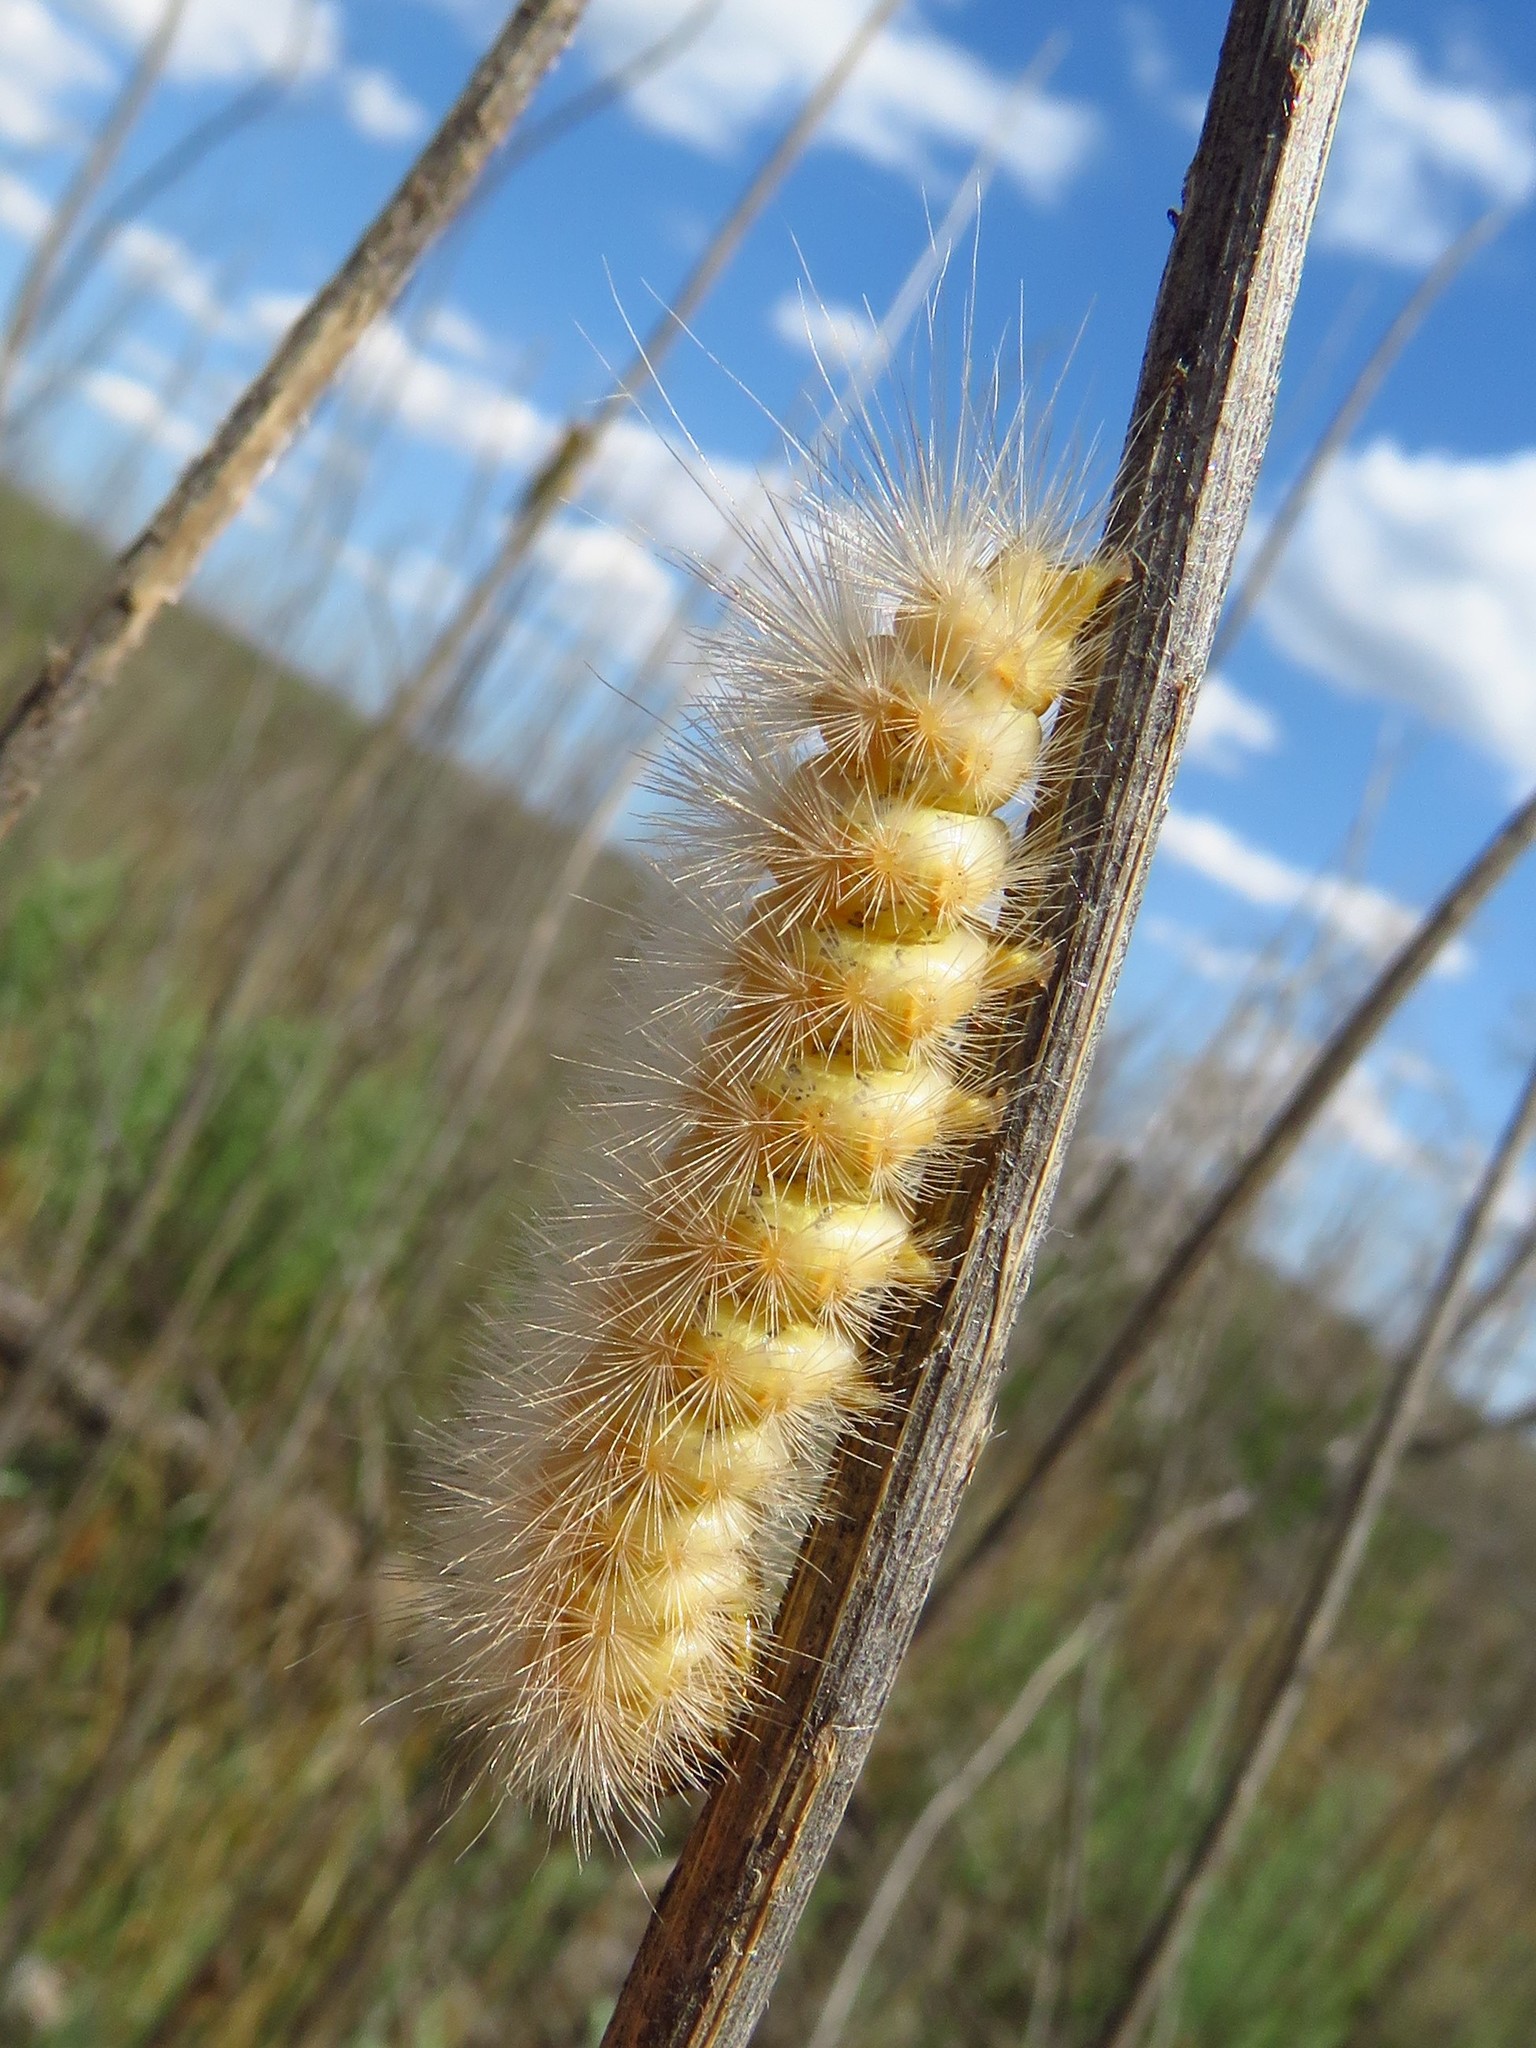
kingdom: Animalia
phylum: Arthropoda
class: Insecta
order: Lepidoptera
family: Erebidae
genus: Estigmene
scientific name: Estigmene acrea
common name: Salt marsh moth
